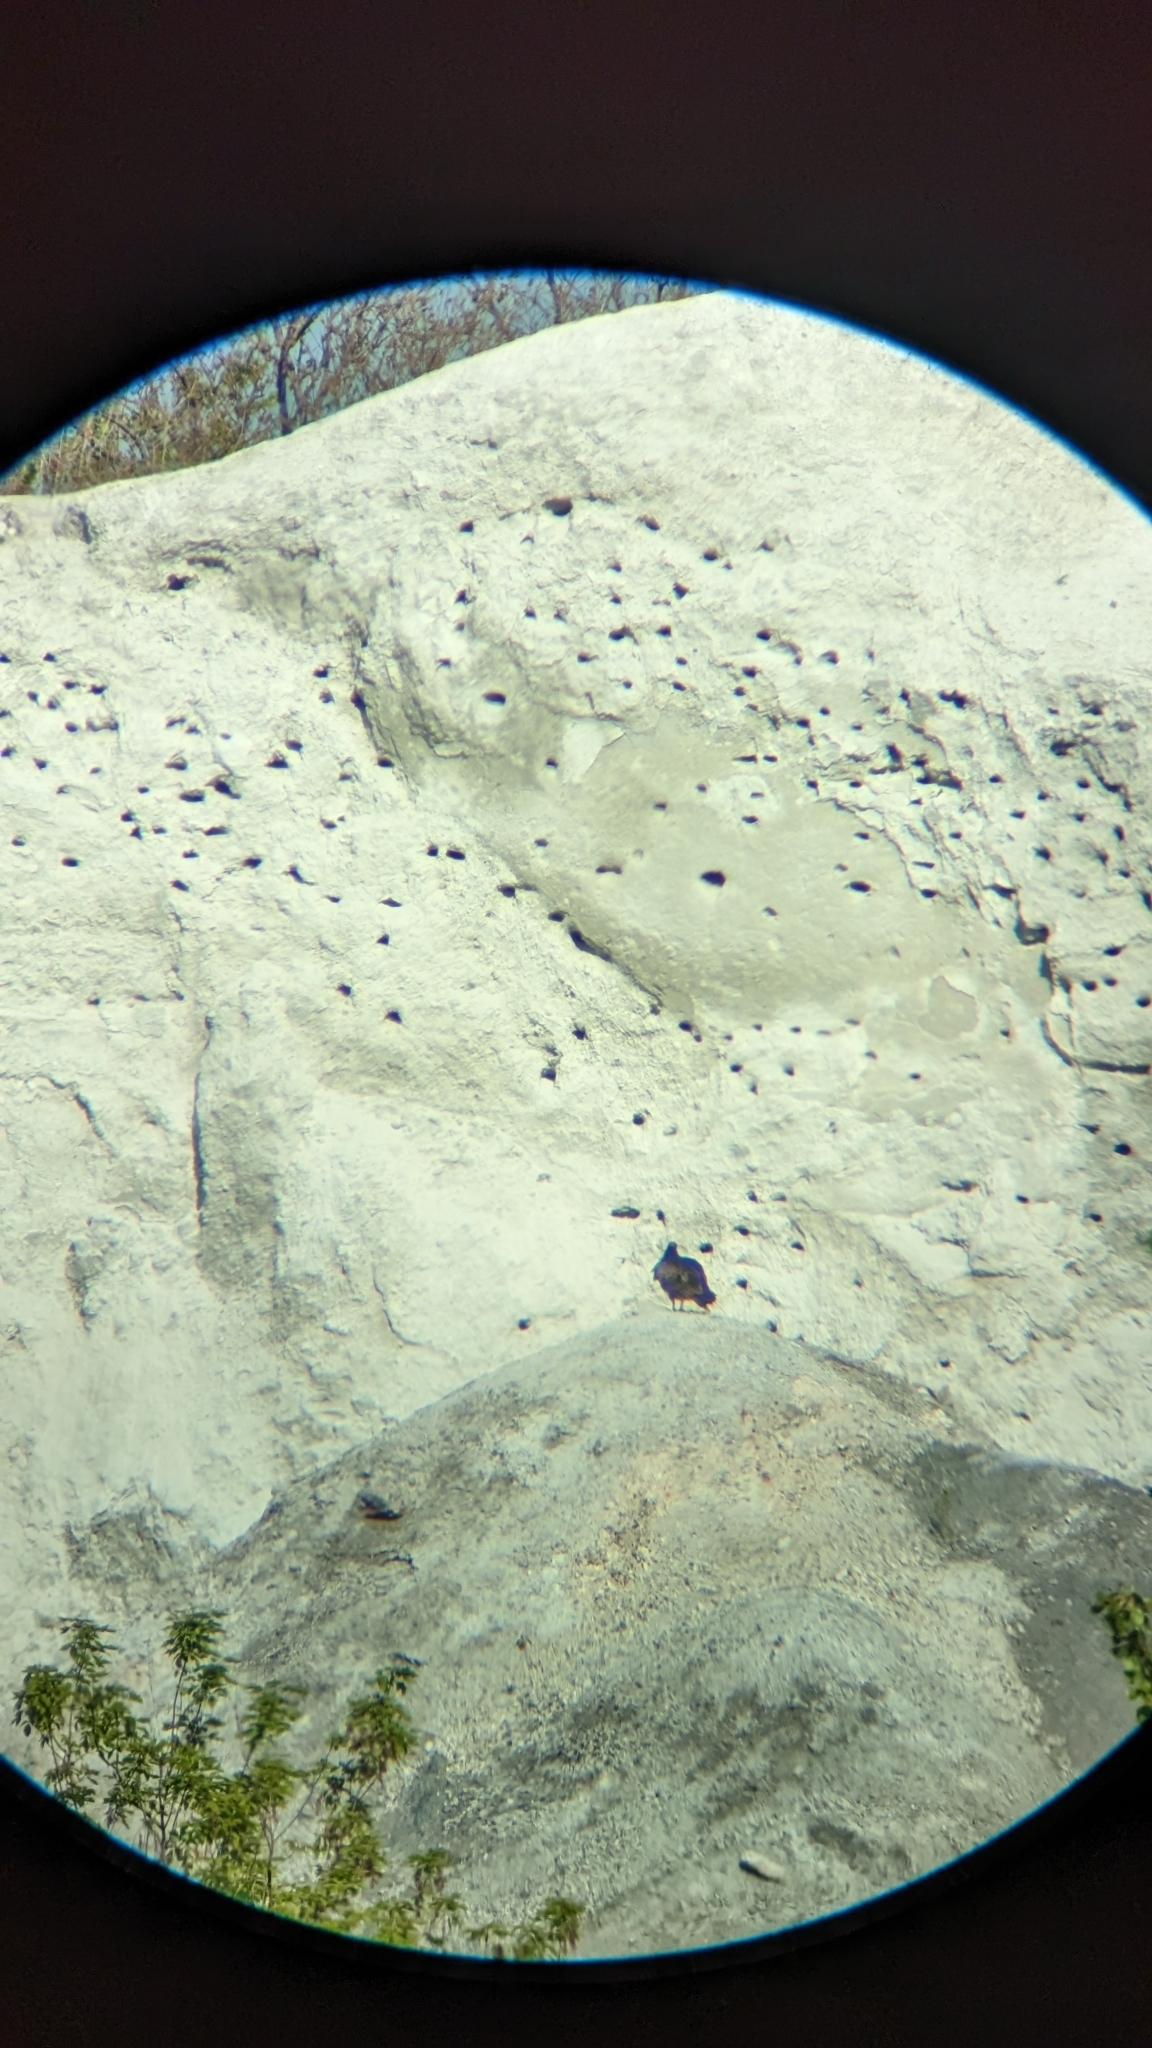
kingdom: Animalia
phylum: Chordata
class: Aves
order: Accipitriformes
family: Cathartidae
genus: Cathartes
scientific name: Cathartes aura
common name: Turkey vulture
